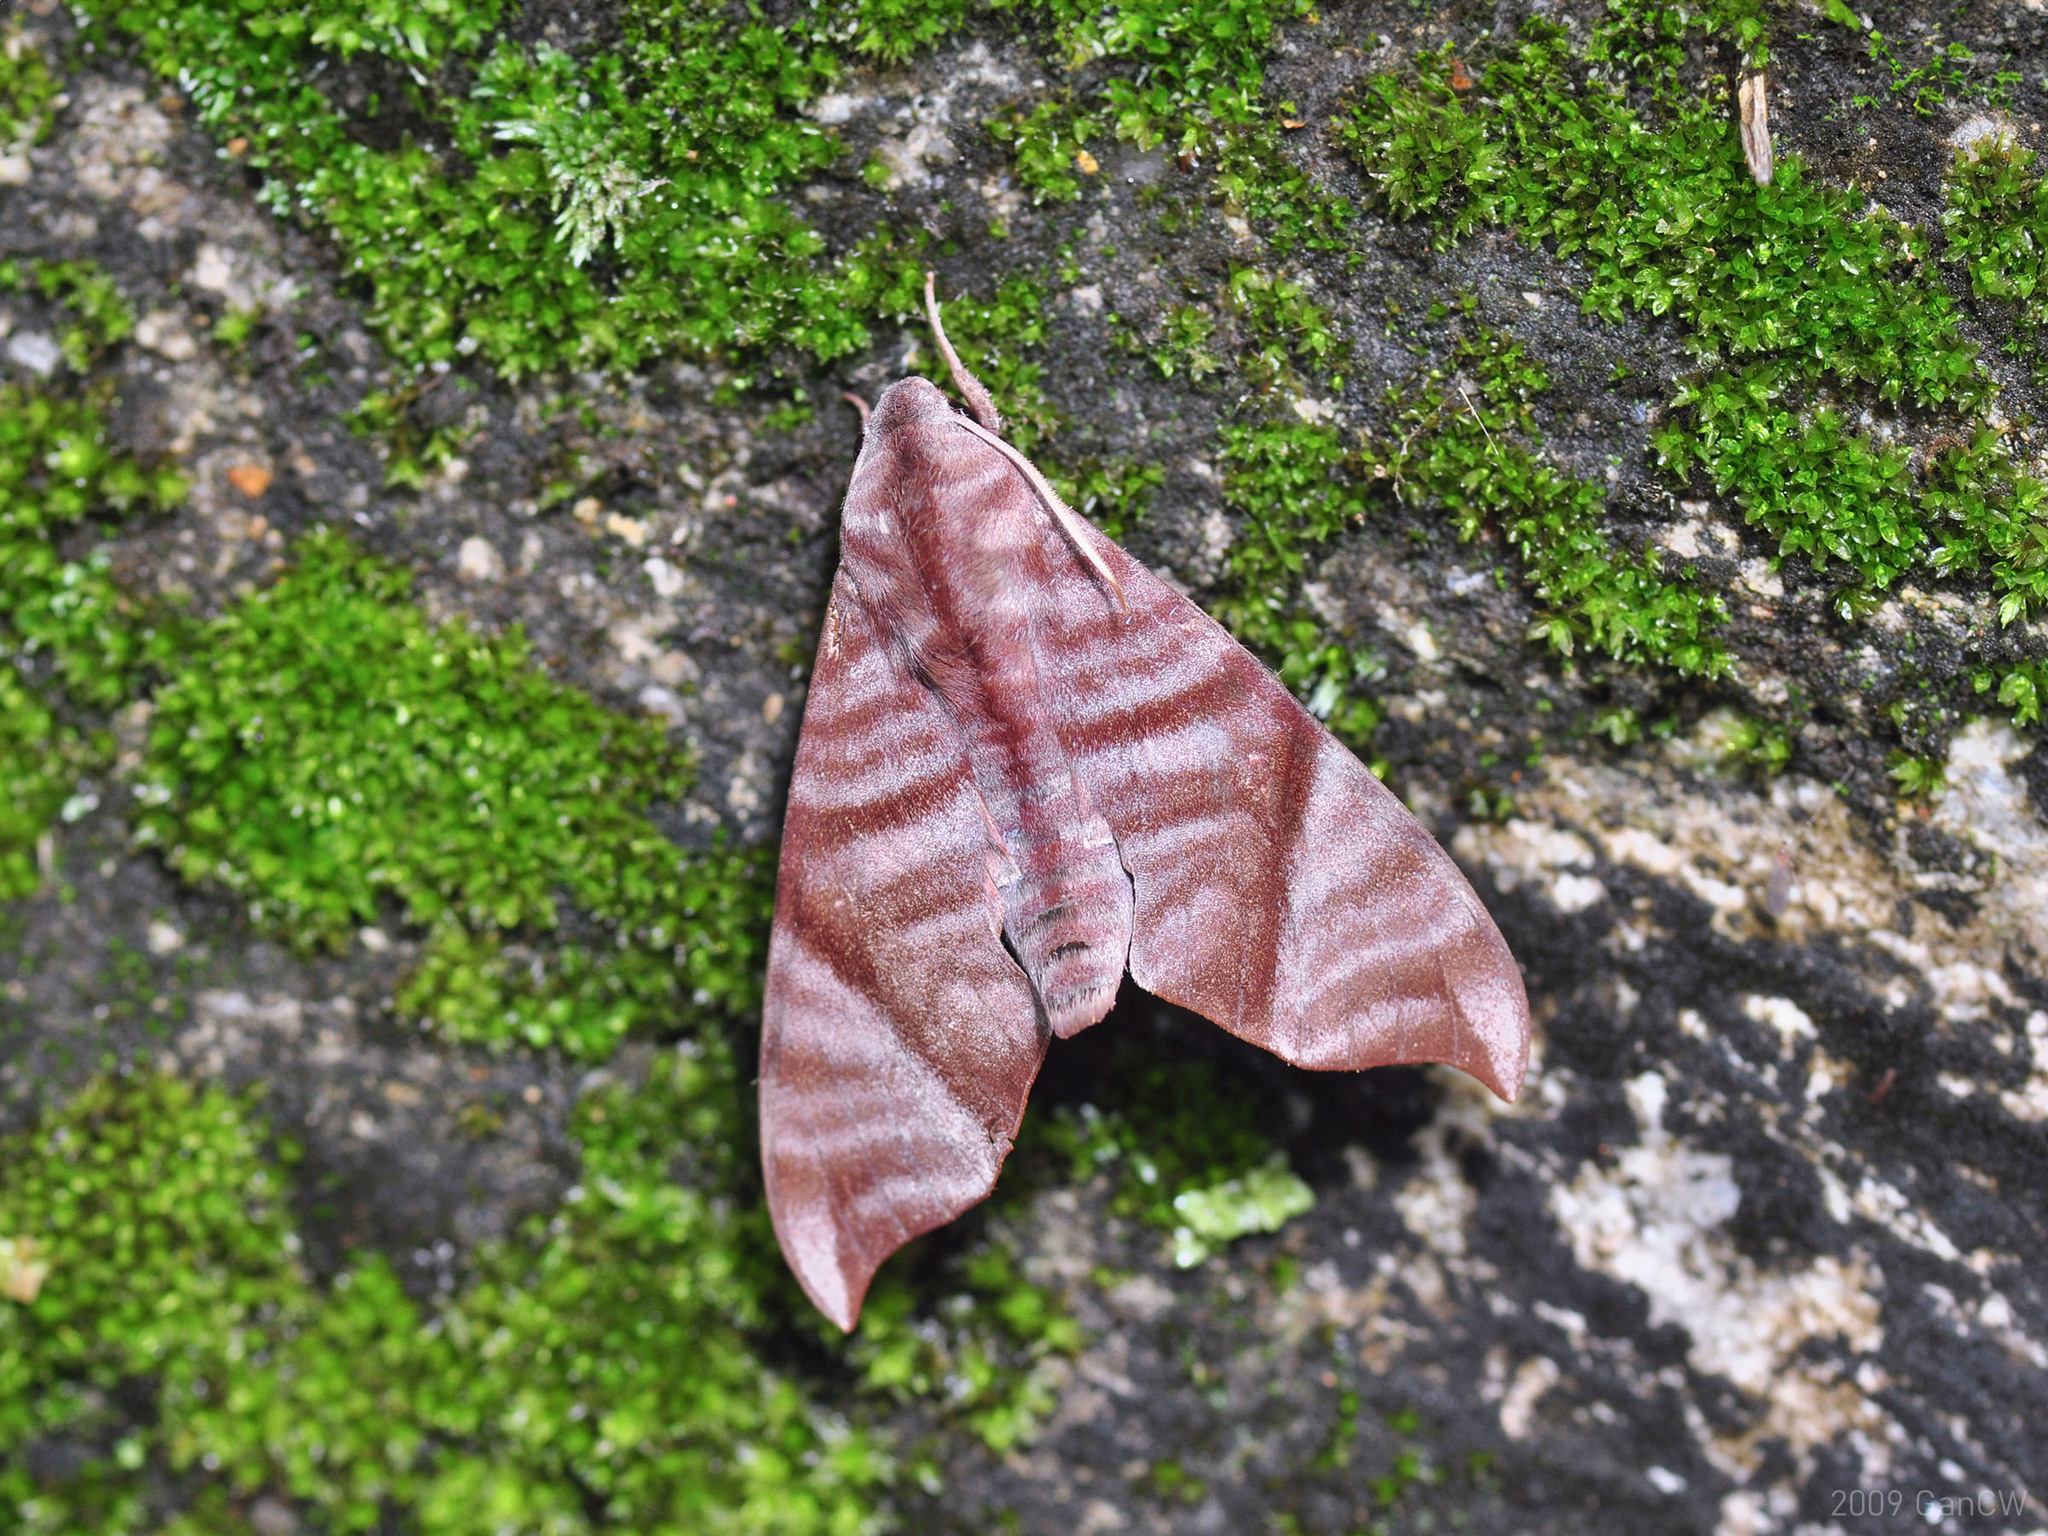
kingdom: Animalia
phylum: Arthropoda
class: Insecta
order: Lepidoptera
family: Sphingidae
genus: Dahira
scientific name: Dahira falcata
